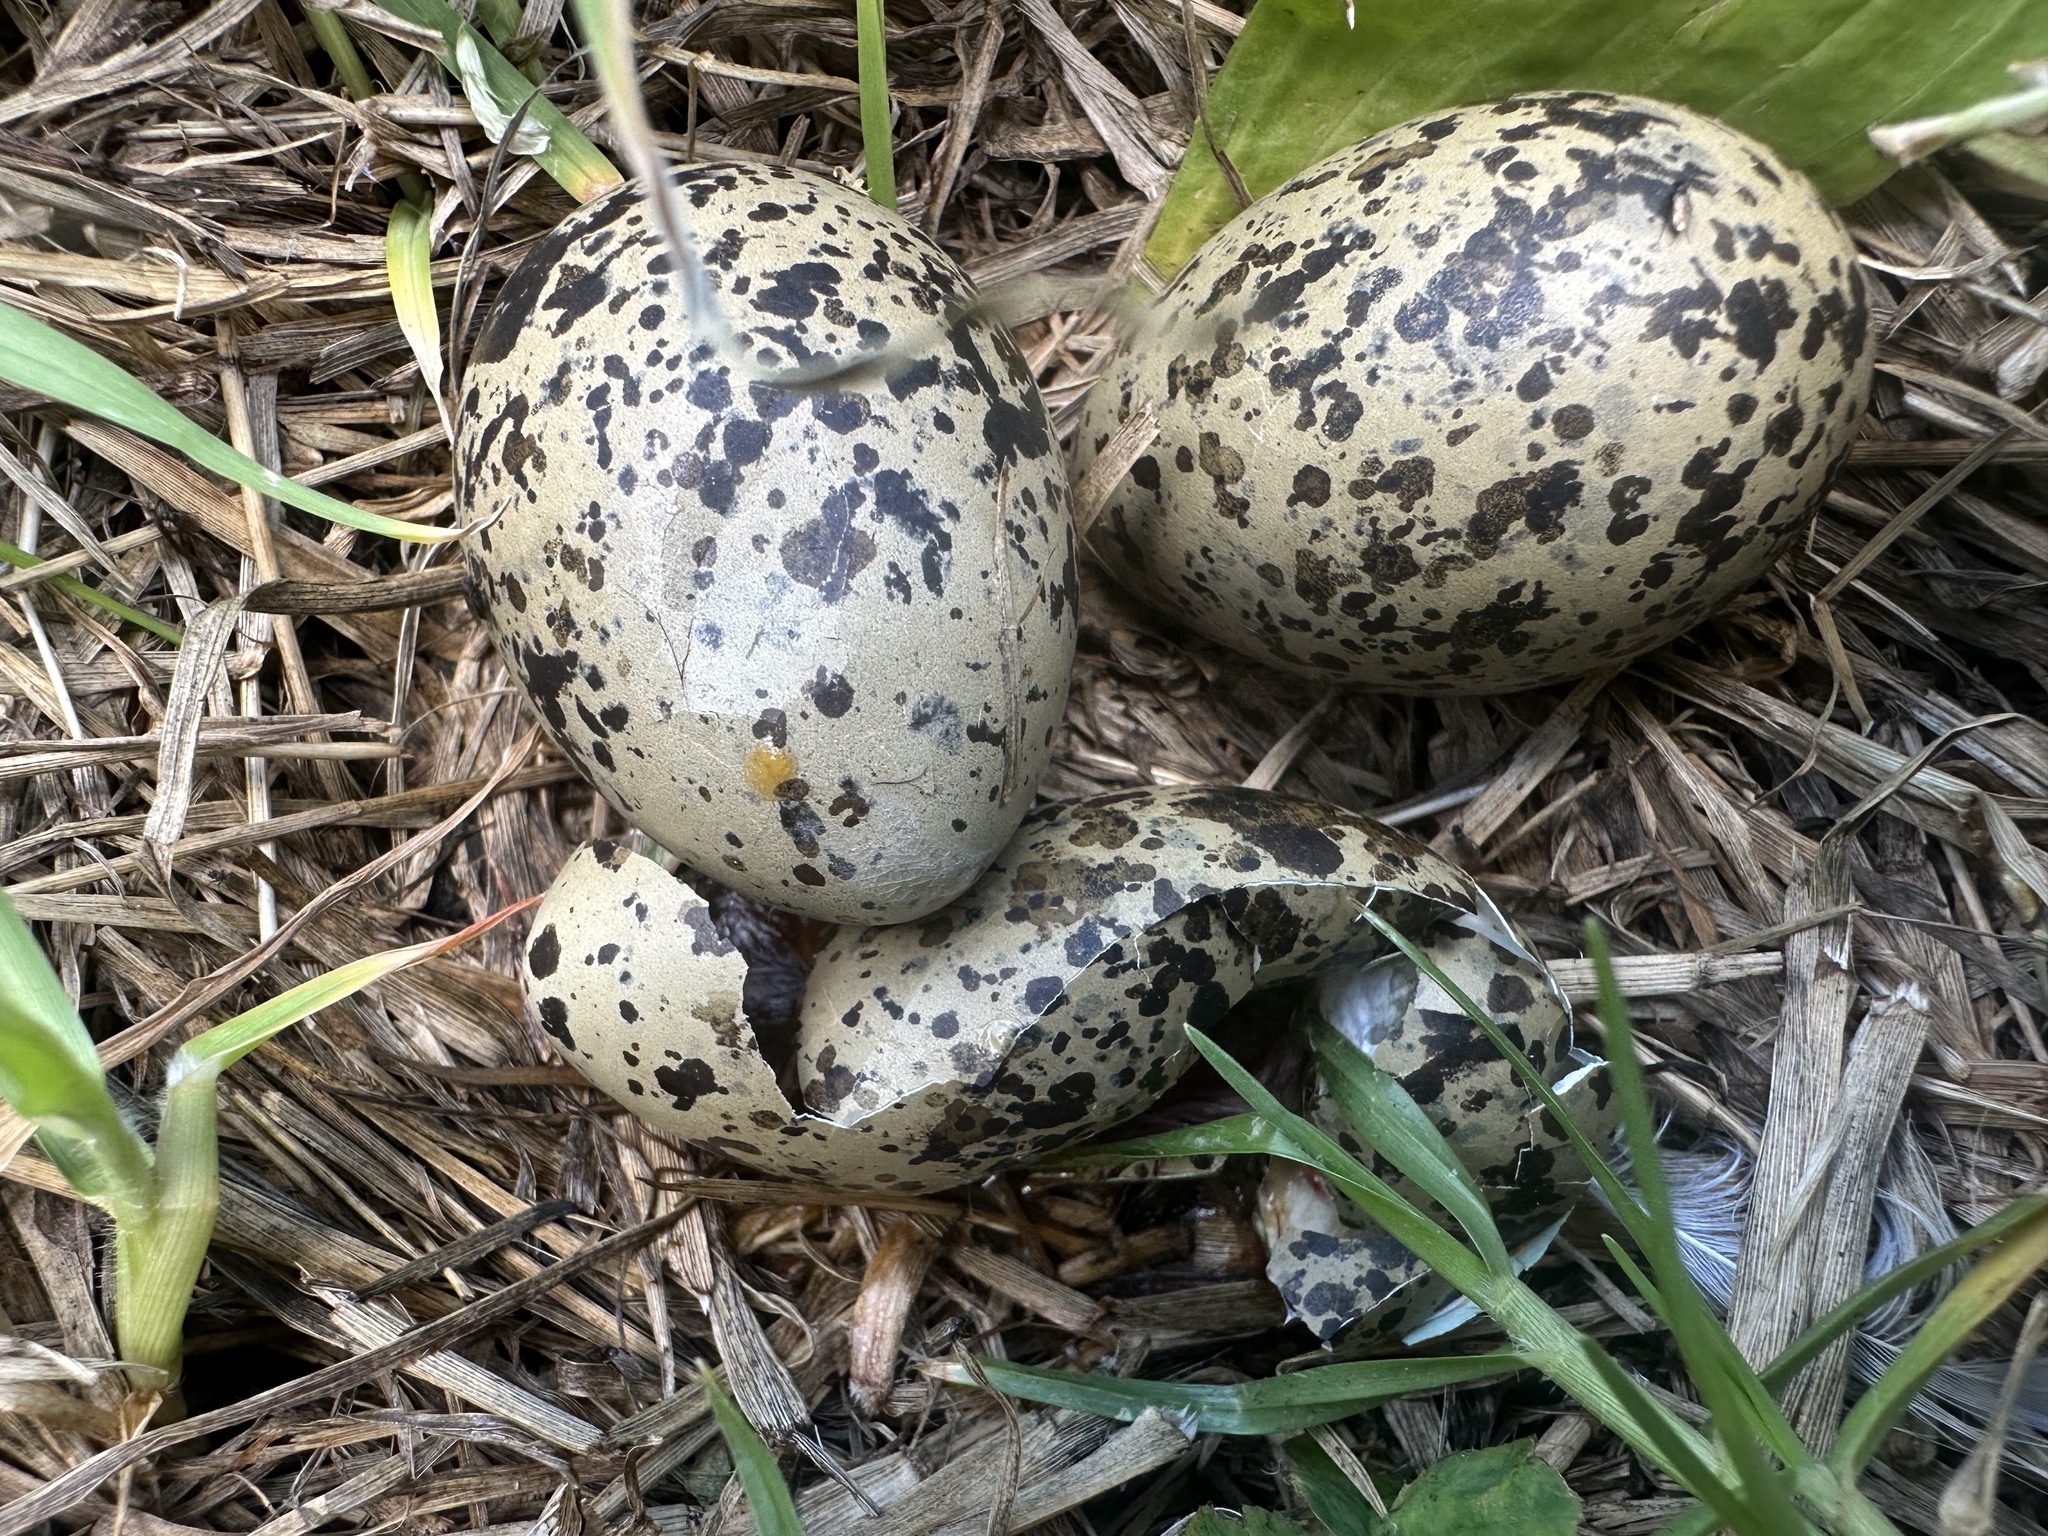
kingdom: Animalia
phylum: Chordata
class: Aves
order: Charadriiformes
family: Charadriidae
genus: Anarhynchus
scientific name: Anarhynchus
